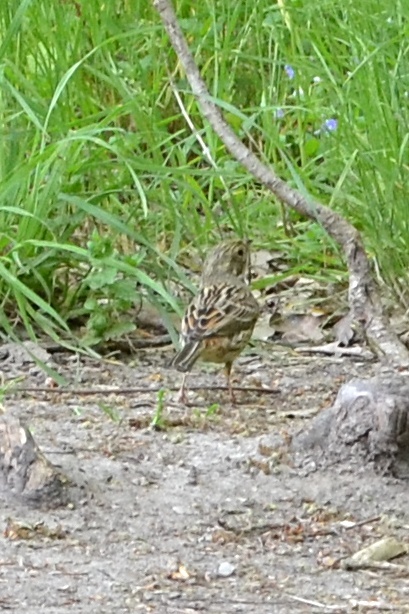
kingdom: Animalia
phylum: Chordata
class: Aves
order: Passeriformes
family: Prunellidae
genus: Prunella
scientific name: Prunella modularis
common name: Dunnock
